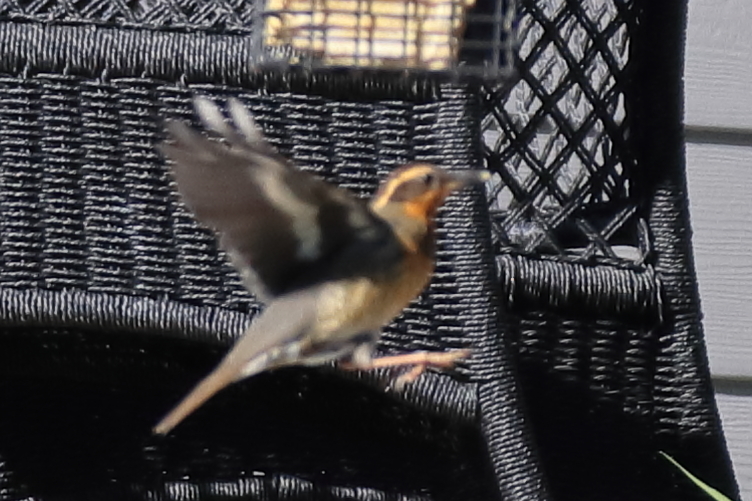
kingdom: Animalia
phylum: Chordata
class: Aves
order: Passeriformes
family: Turdidae
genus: Ixoreus
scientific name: Ixoreus naevius
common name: Varied thrush
